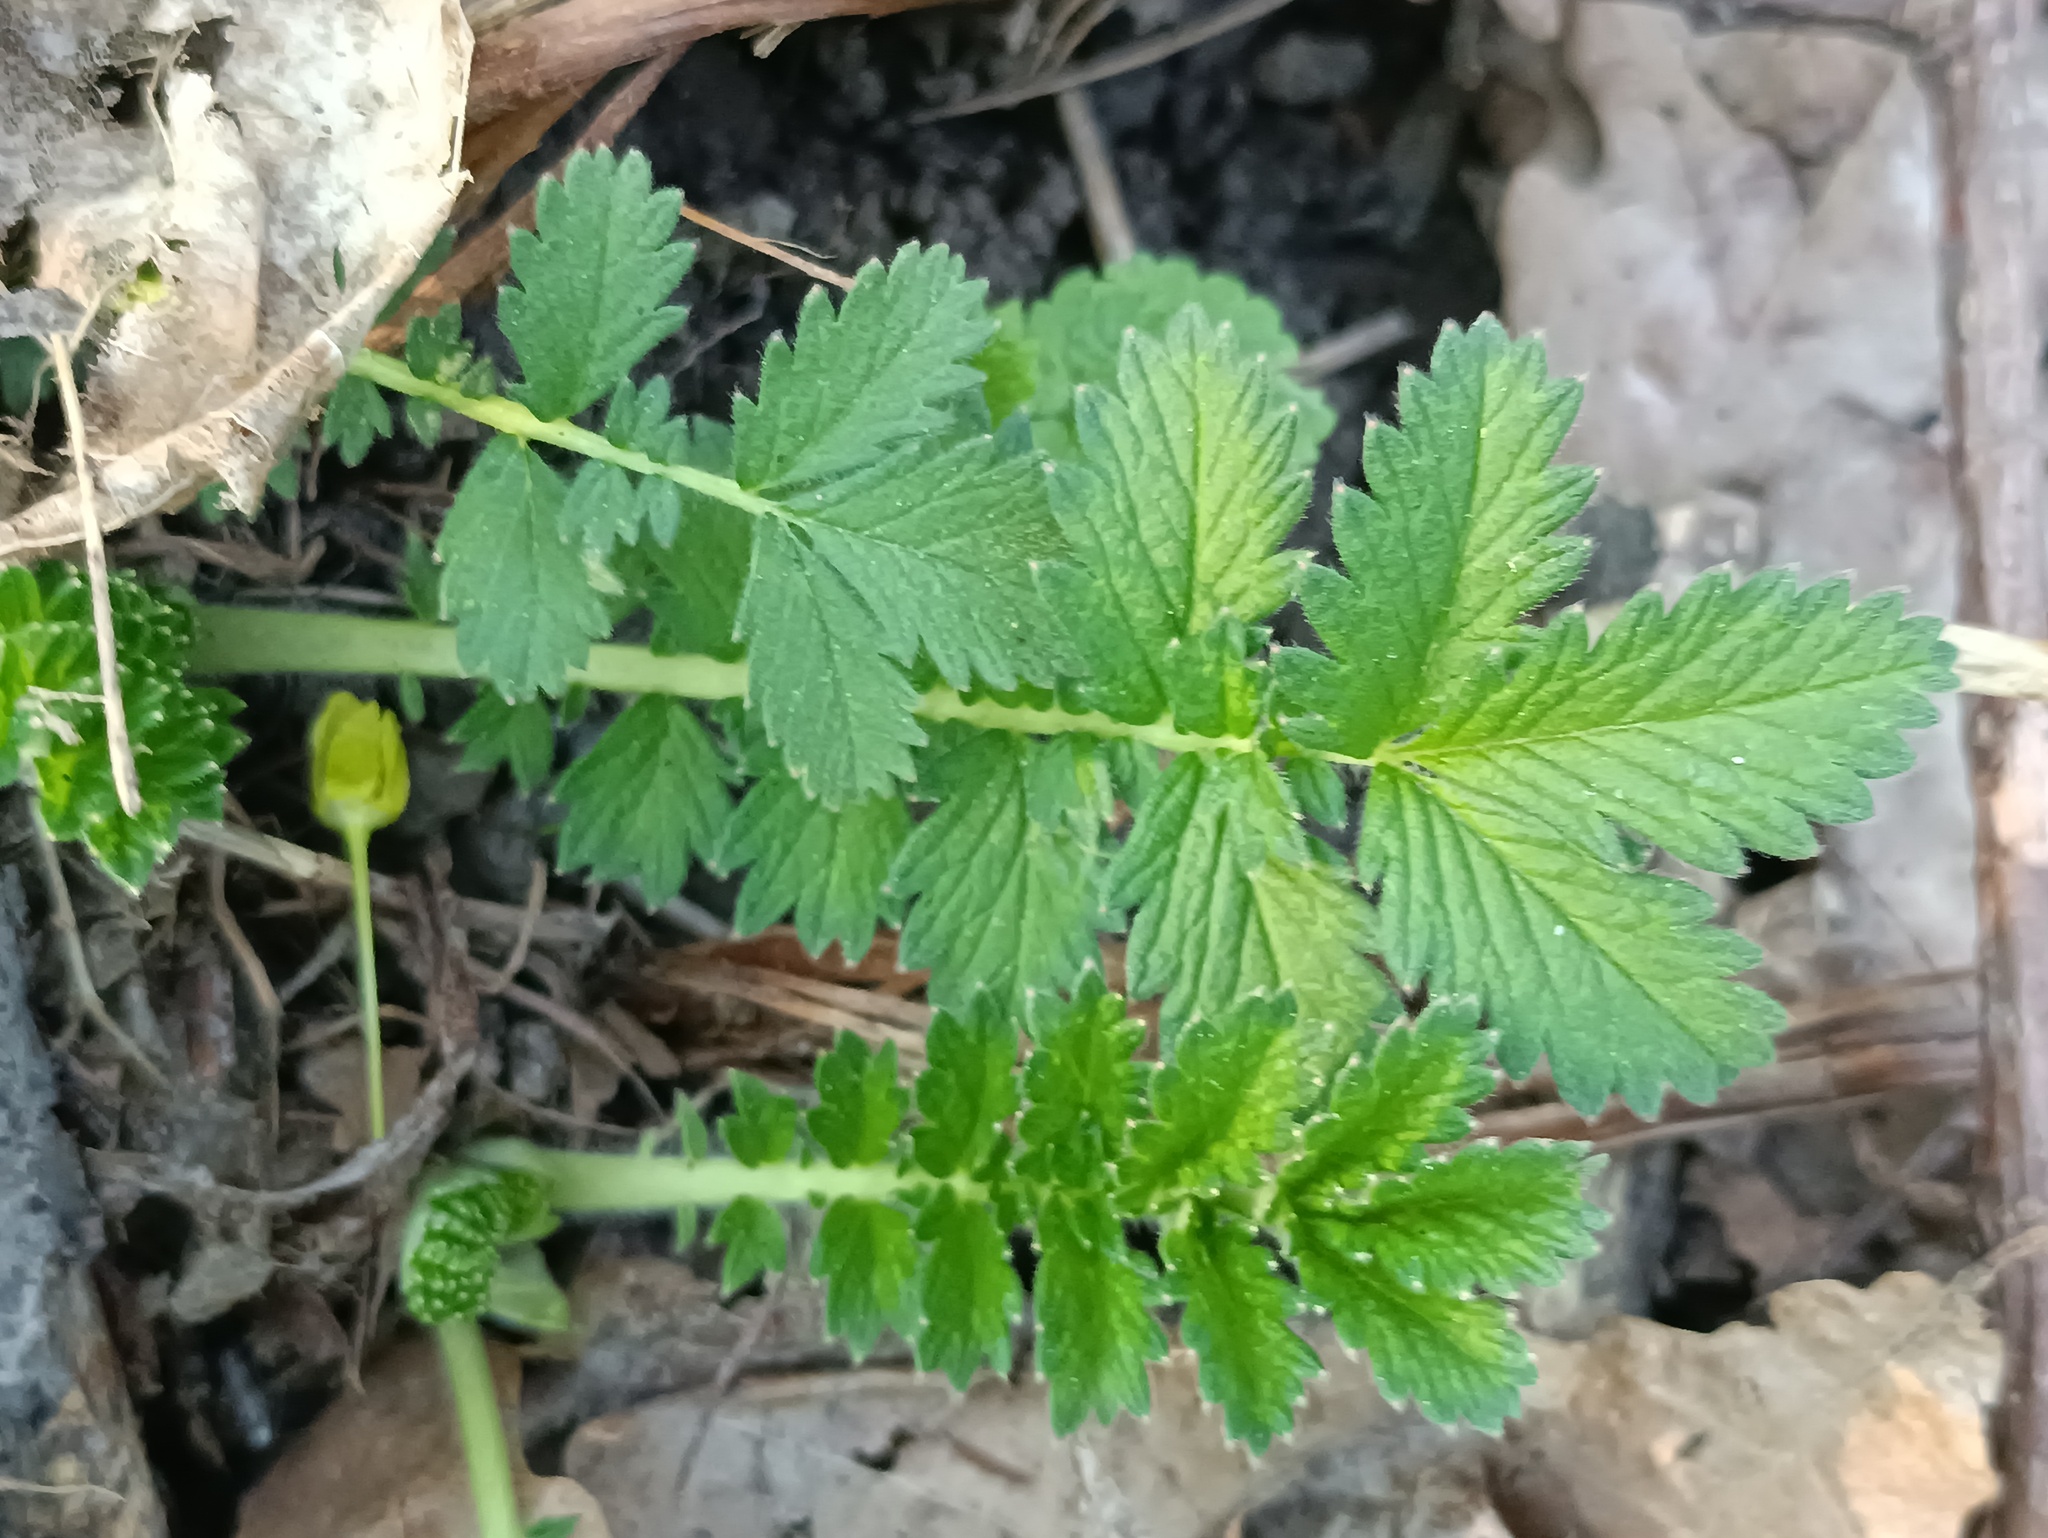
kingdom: Plantae
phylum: Tracheophyta
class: Magnoliopsida
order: Rosales
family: Rosaceae
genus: Agrimonia
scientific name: Agrimonia eupatoria
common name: Agrimony
